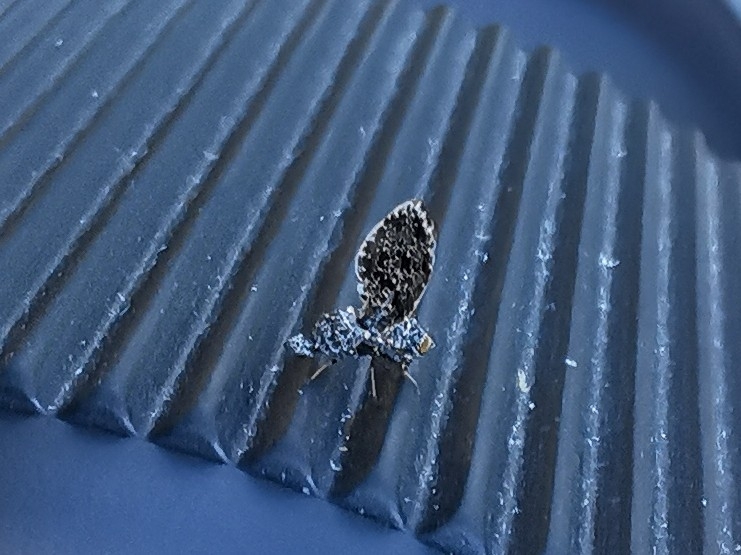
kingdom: Animalia
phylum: Arthropoda
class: Insecta
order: Diptera
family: Ulidiidae
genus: Callopistromyia
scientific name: Callopistromyia annulipes
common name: Peacock fly
